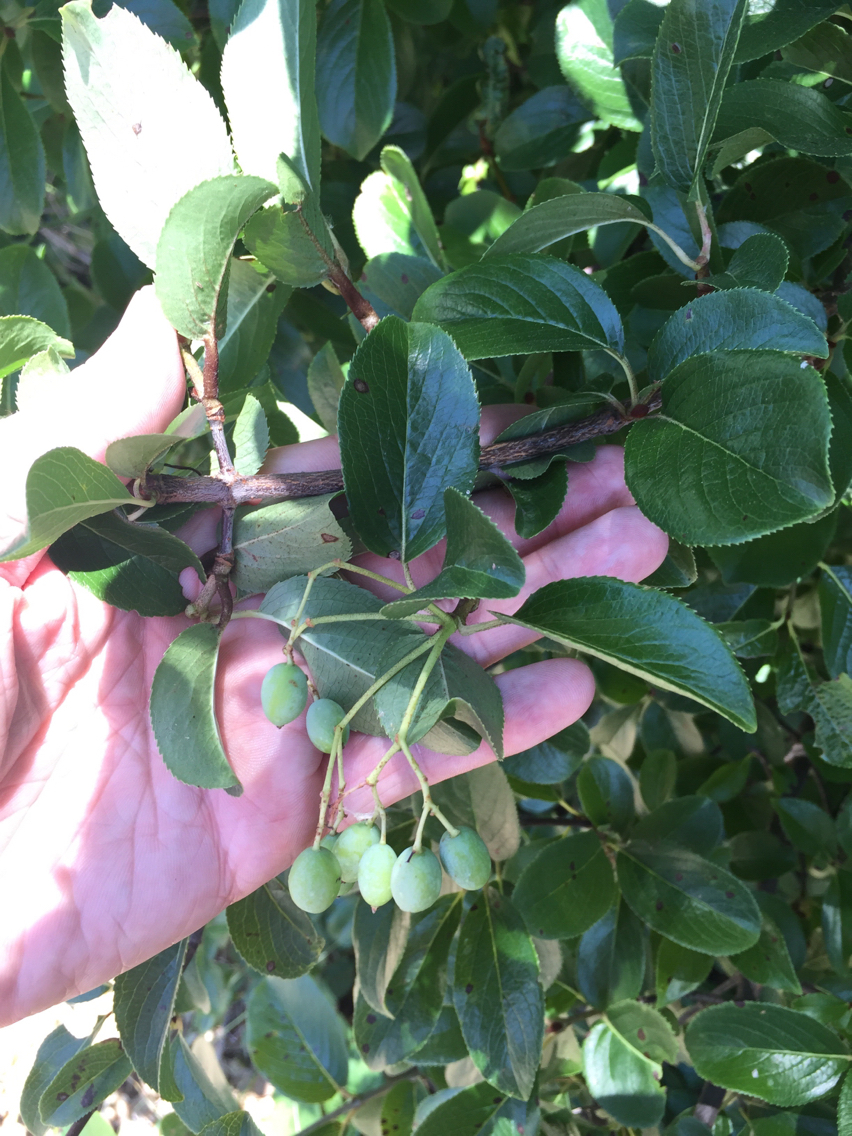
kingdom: Plantae
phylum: Tracheophyta
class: Magnoliopsida
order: Dipsacales
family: Viburnaceae
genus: Viburnum
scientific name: Viburnum rufidulum
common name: Blue haw
